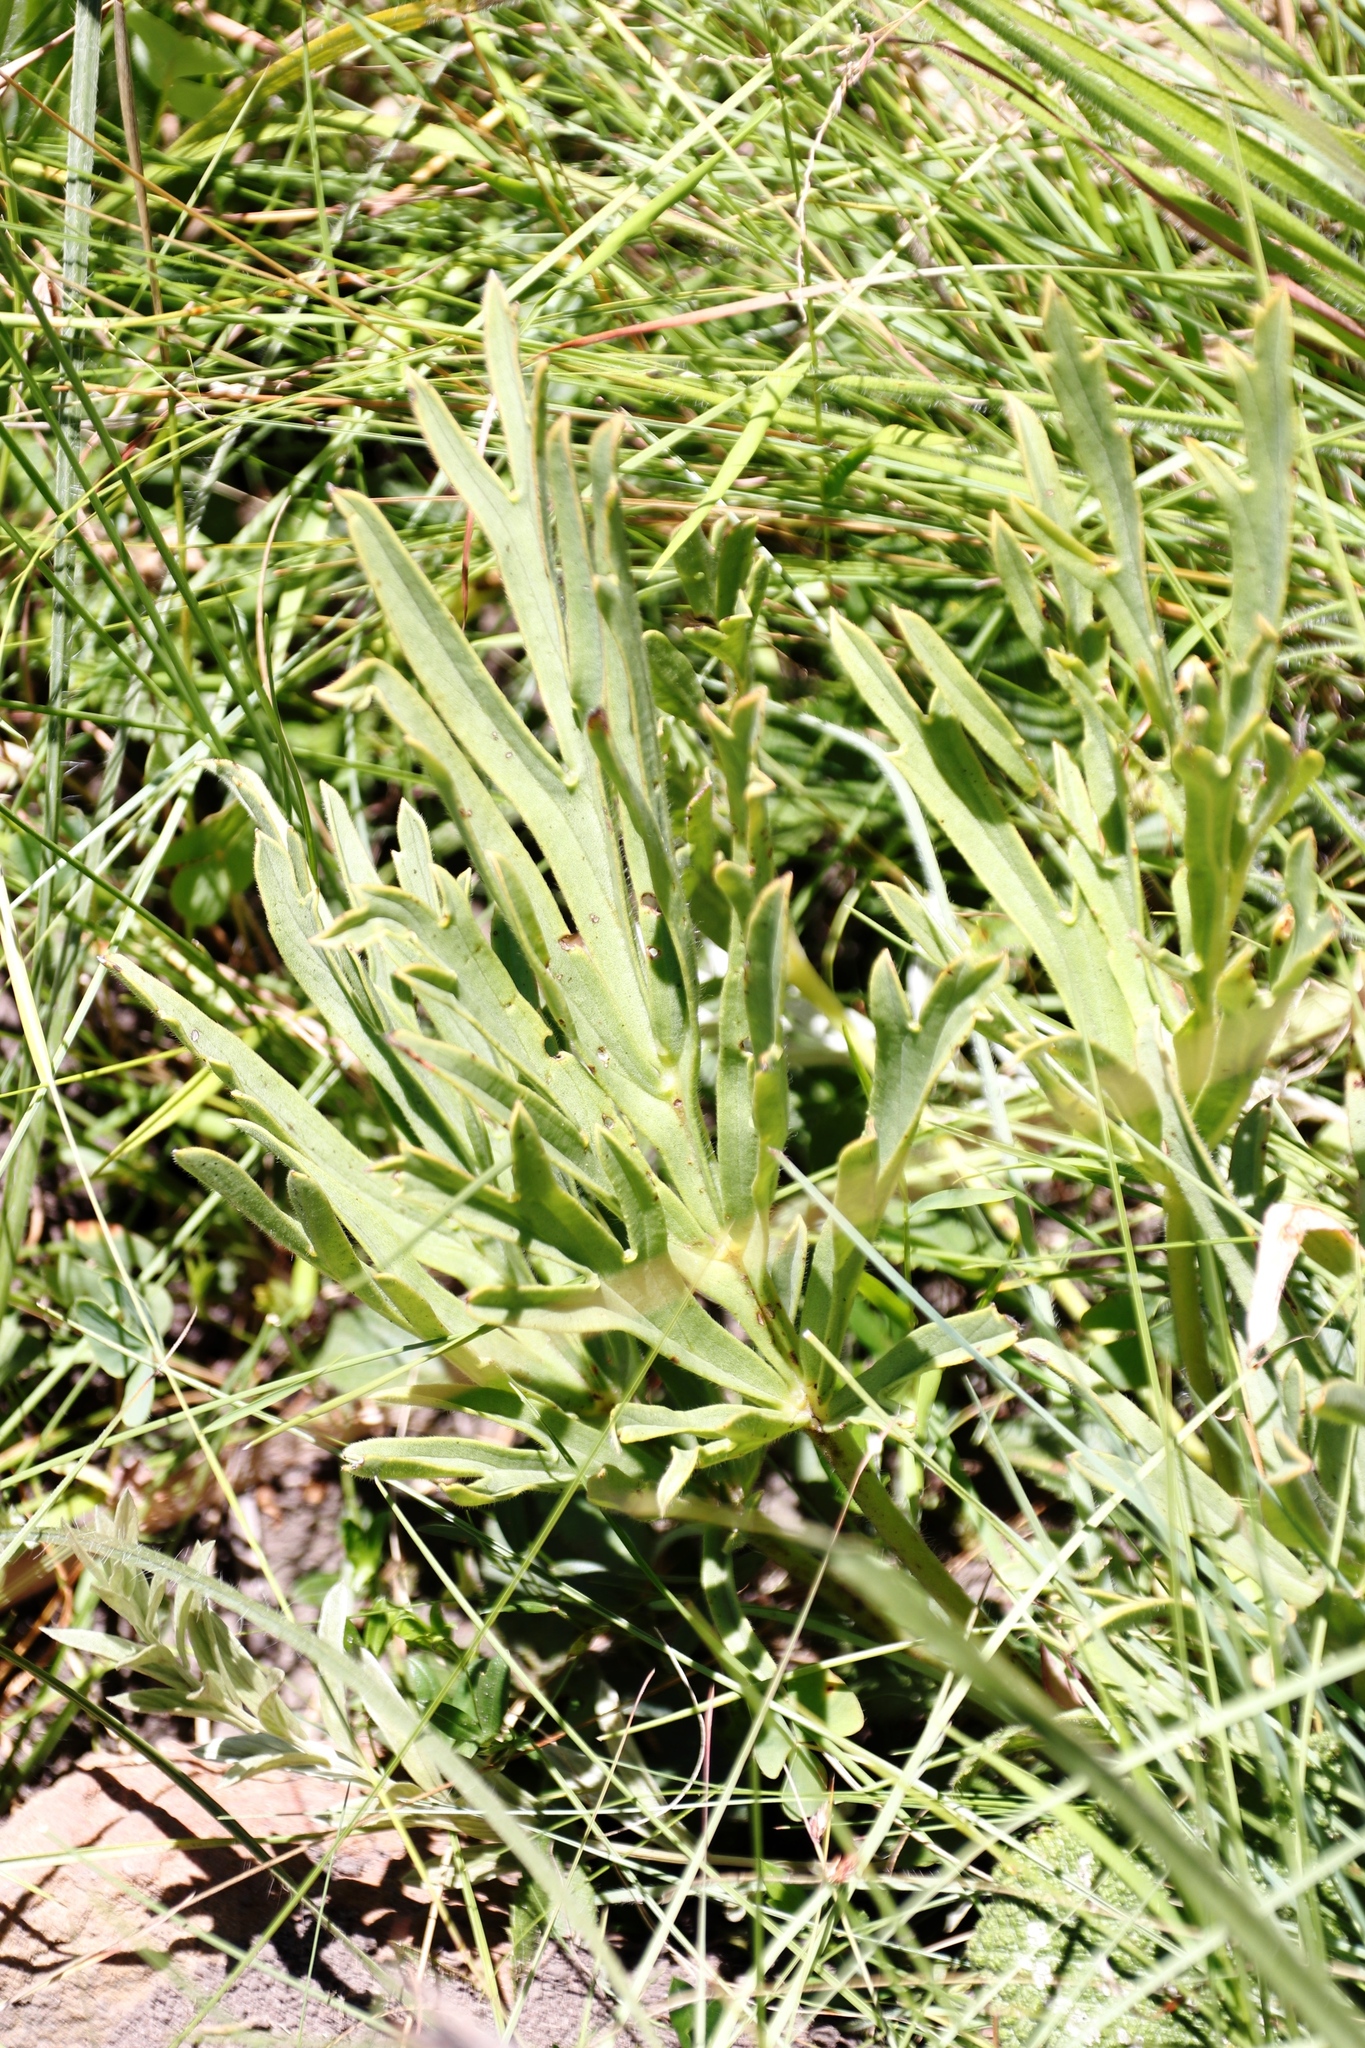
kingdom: Plantae
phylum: Tracheophyta
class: Magnoliopsida
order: Geraniales
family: Geraniaceae
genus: Pelargonium
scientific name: Pelargonium luridum
